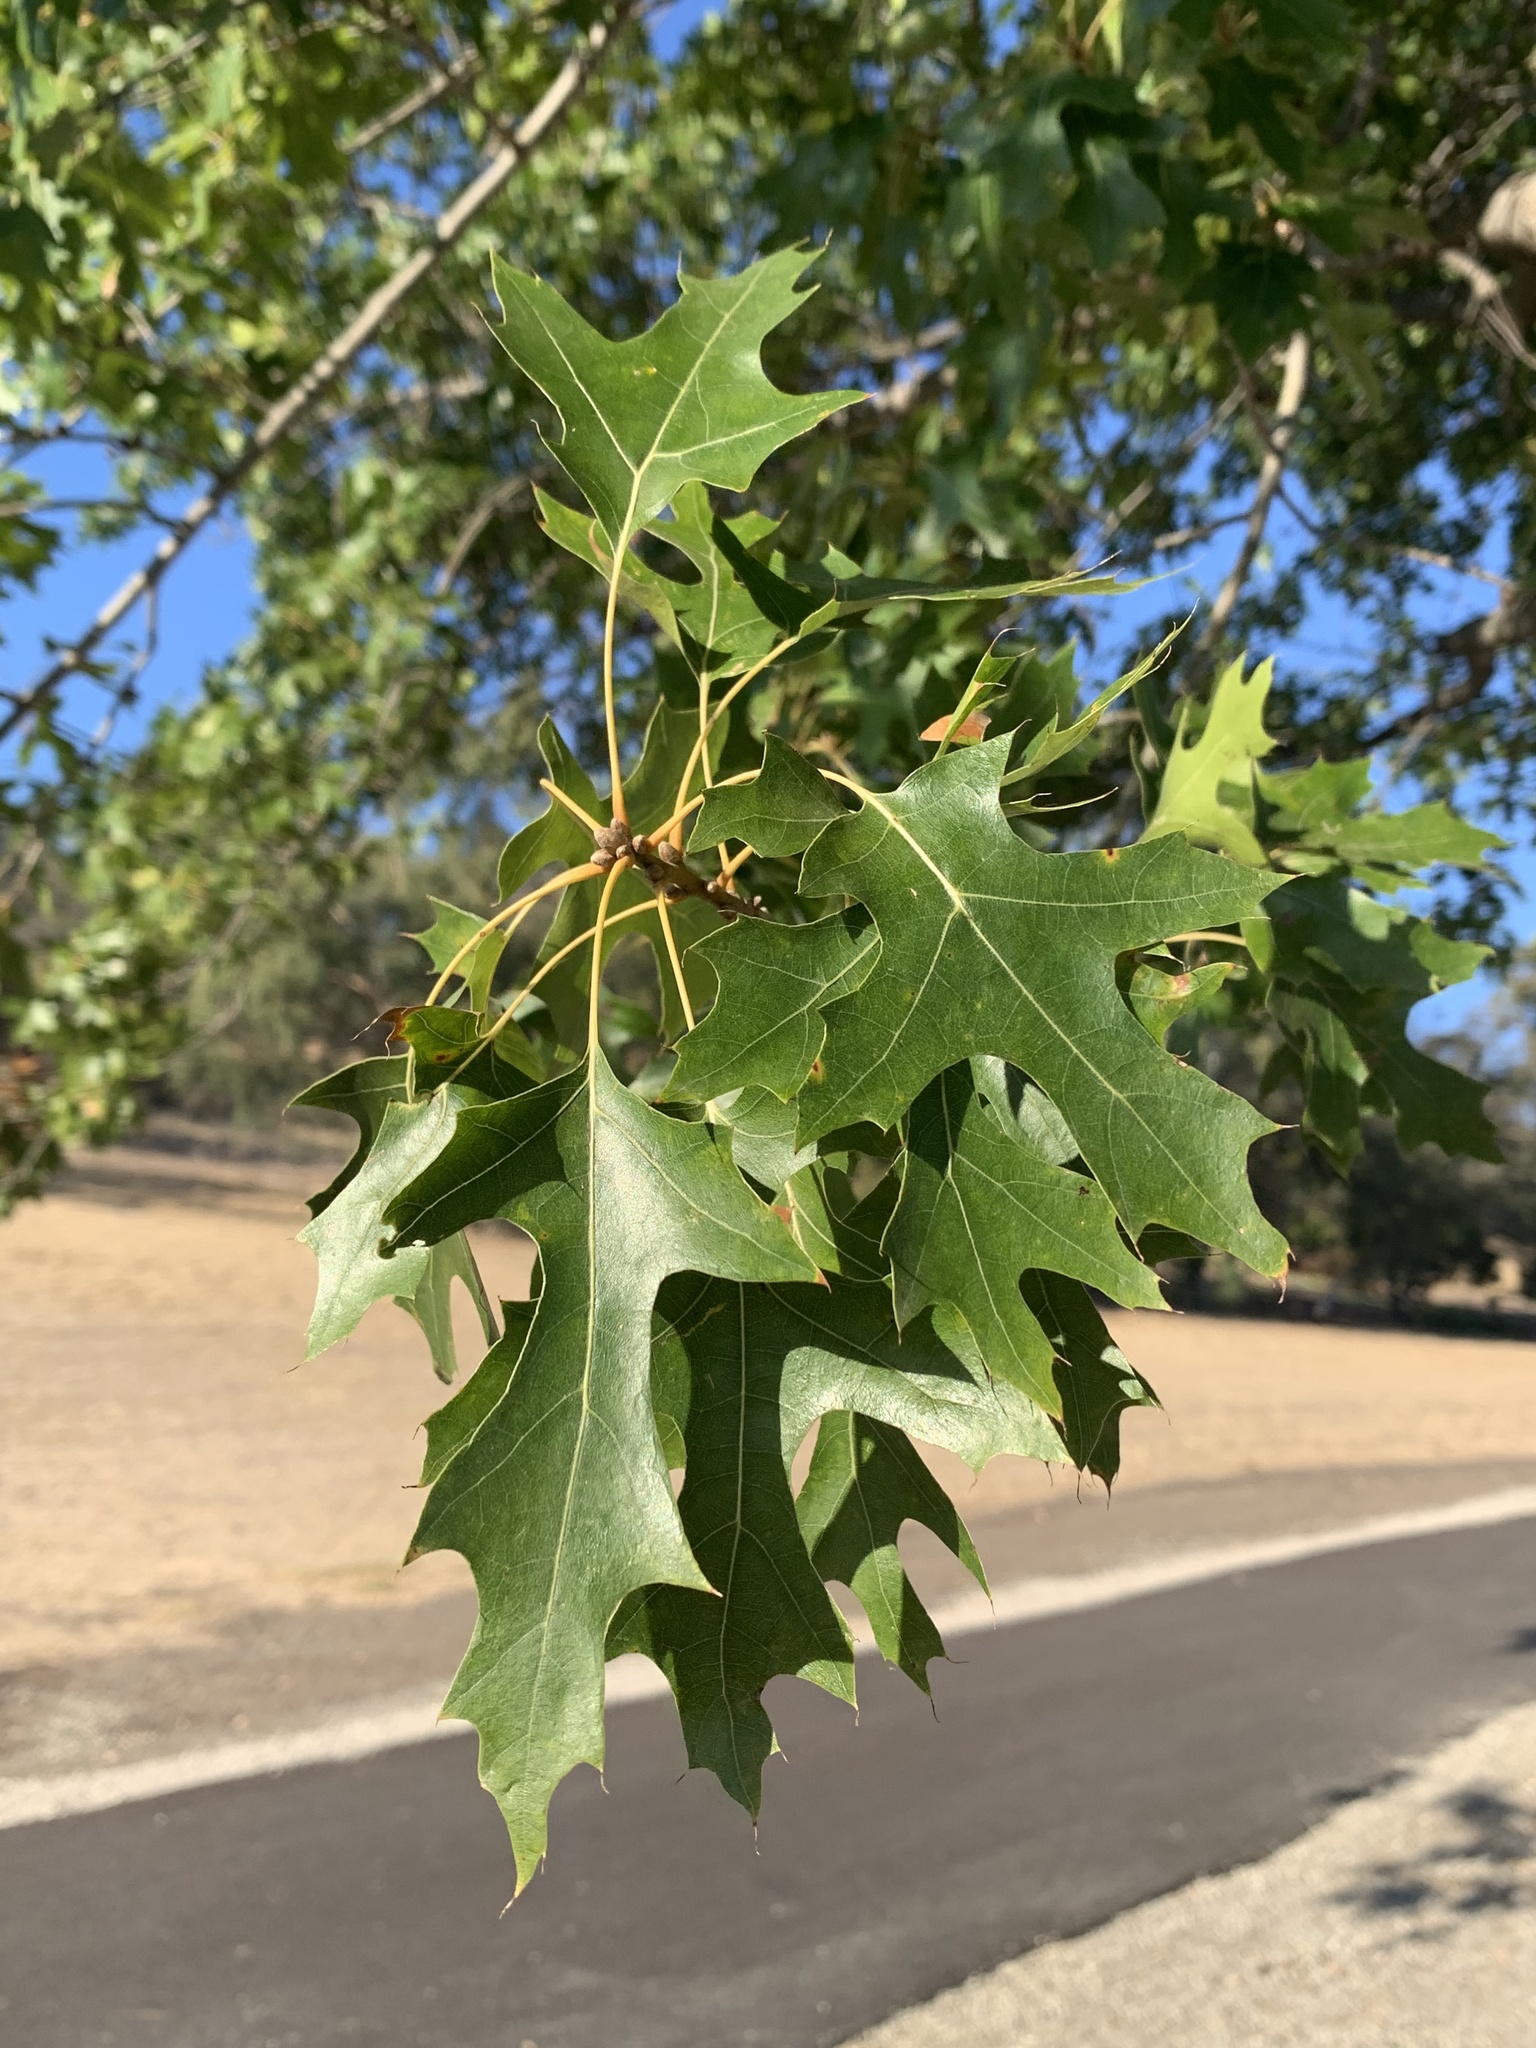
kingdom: Plantae
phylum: Tracheophyta
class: Magnoliopsida
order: Fagales
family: Fagaceae
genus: Quercus
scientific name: Quercus kelloggii
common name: California black oak
